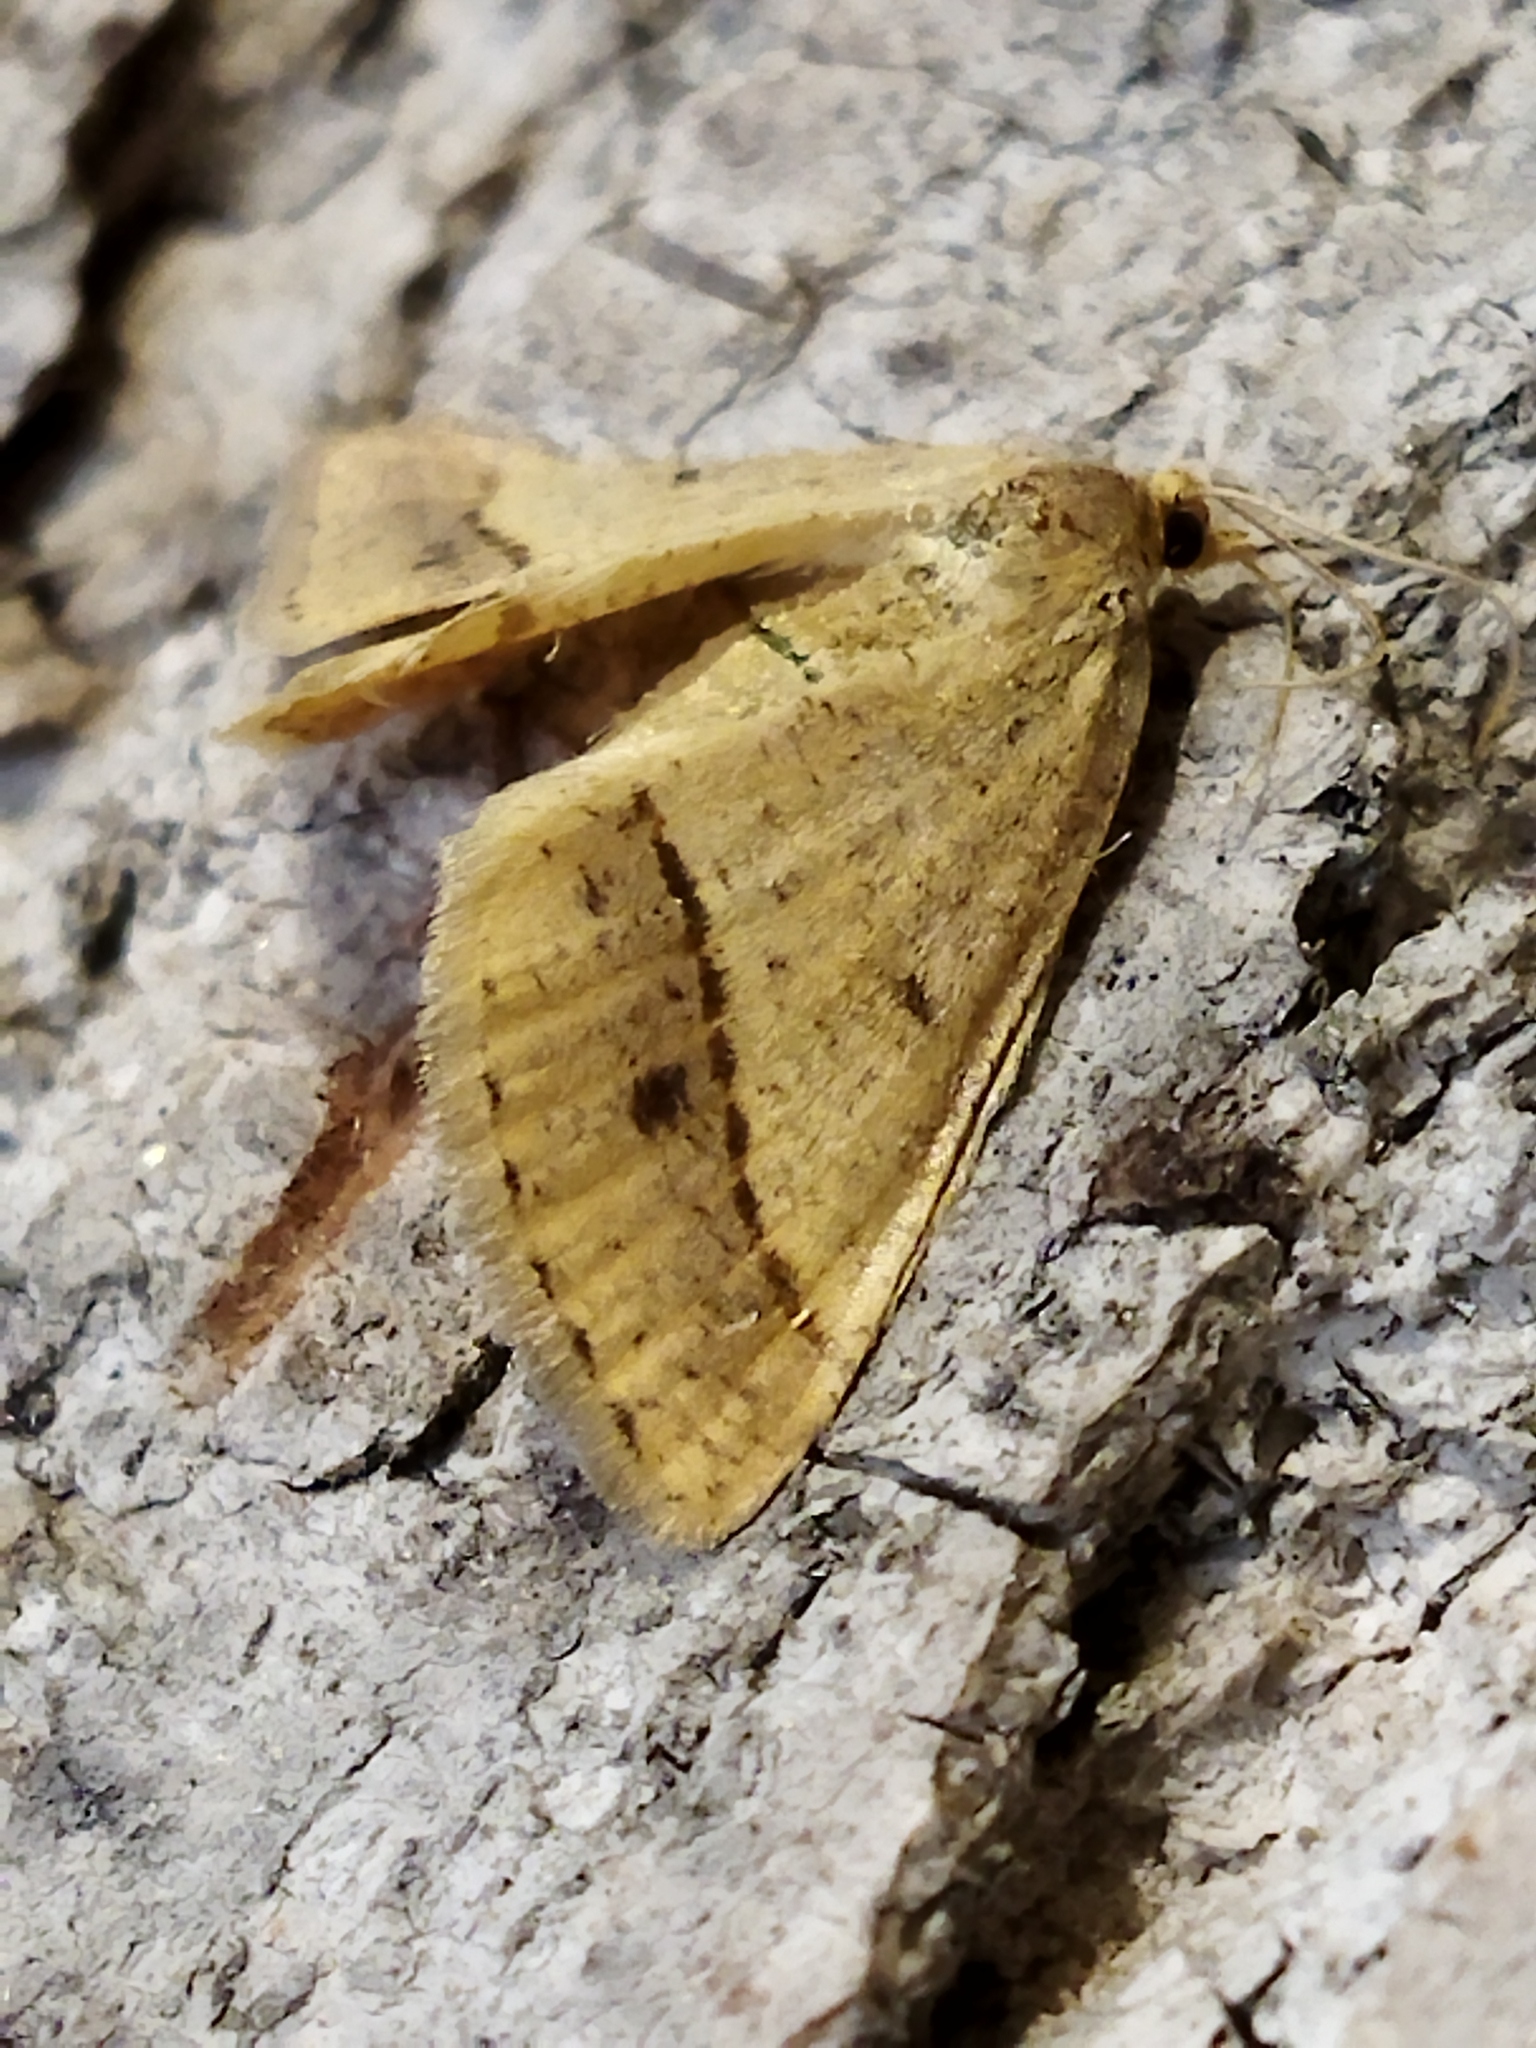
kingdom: Animalia
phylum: Arthropoda
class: Insecta
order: Lepidoptera
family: Geometridae
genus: Tephrina
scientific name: Tephrina arenacearia
